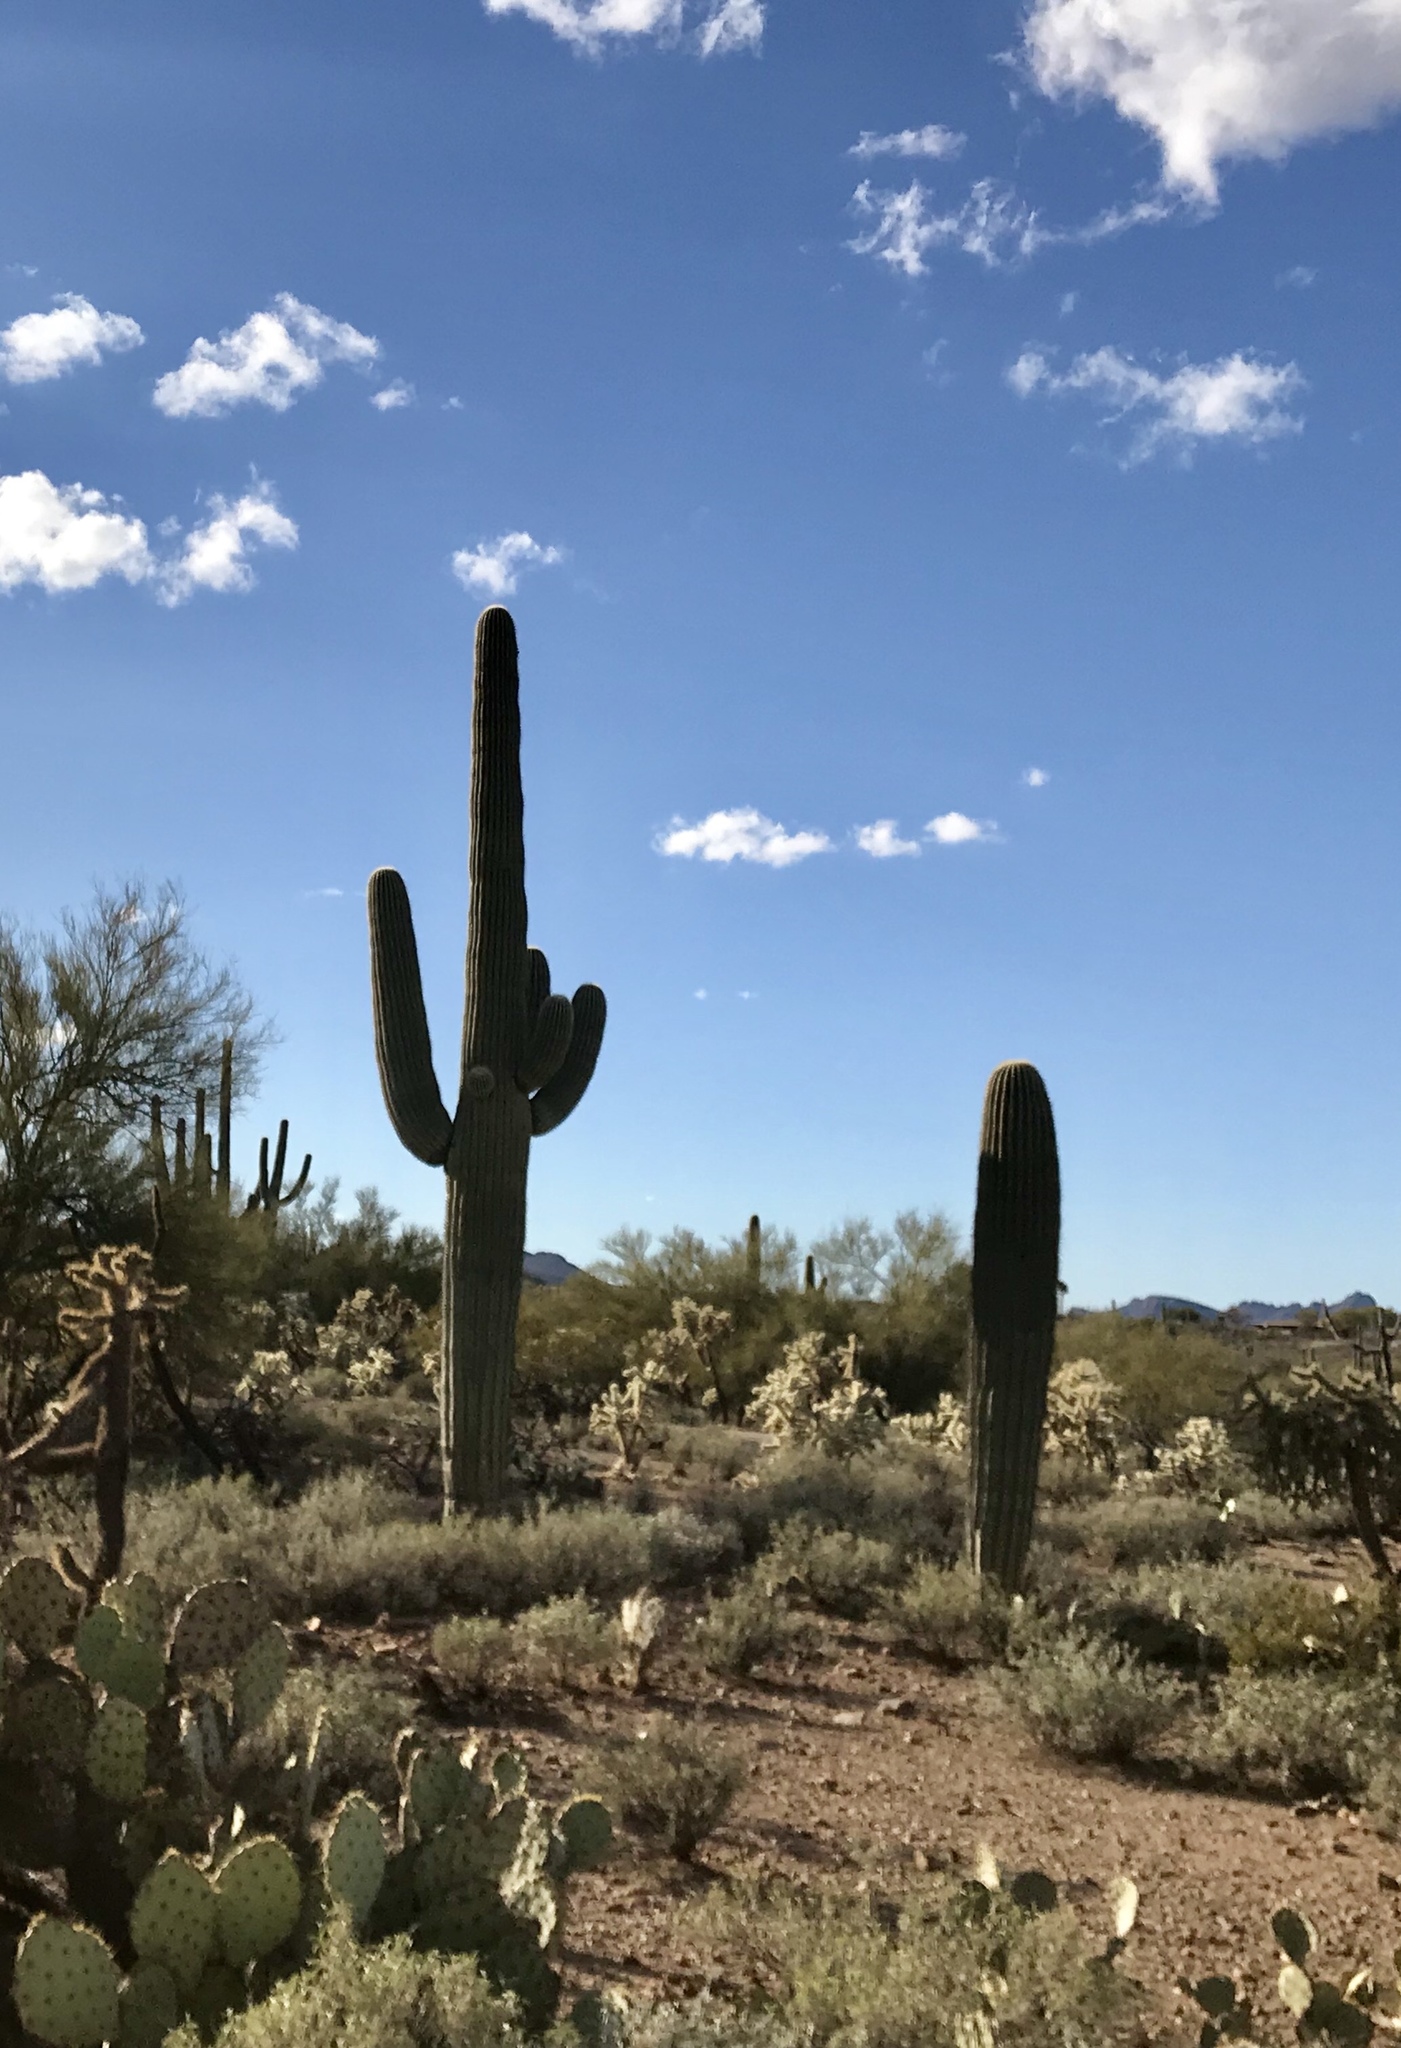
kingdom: Plantae
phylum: Tracheophyta
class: Magnoliopsida
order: Caryophyllales
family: Cactaceae
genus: Carnegiea
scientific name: Carnegiea gigantea
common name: Saguaro
